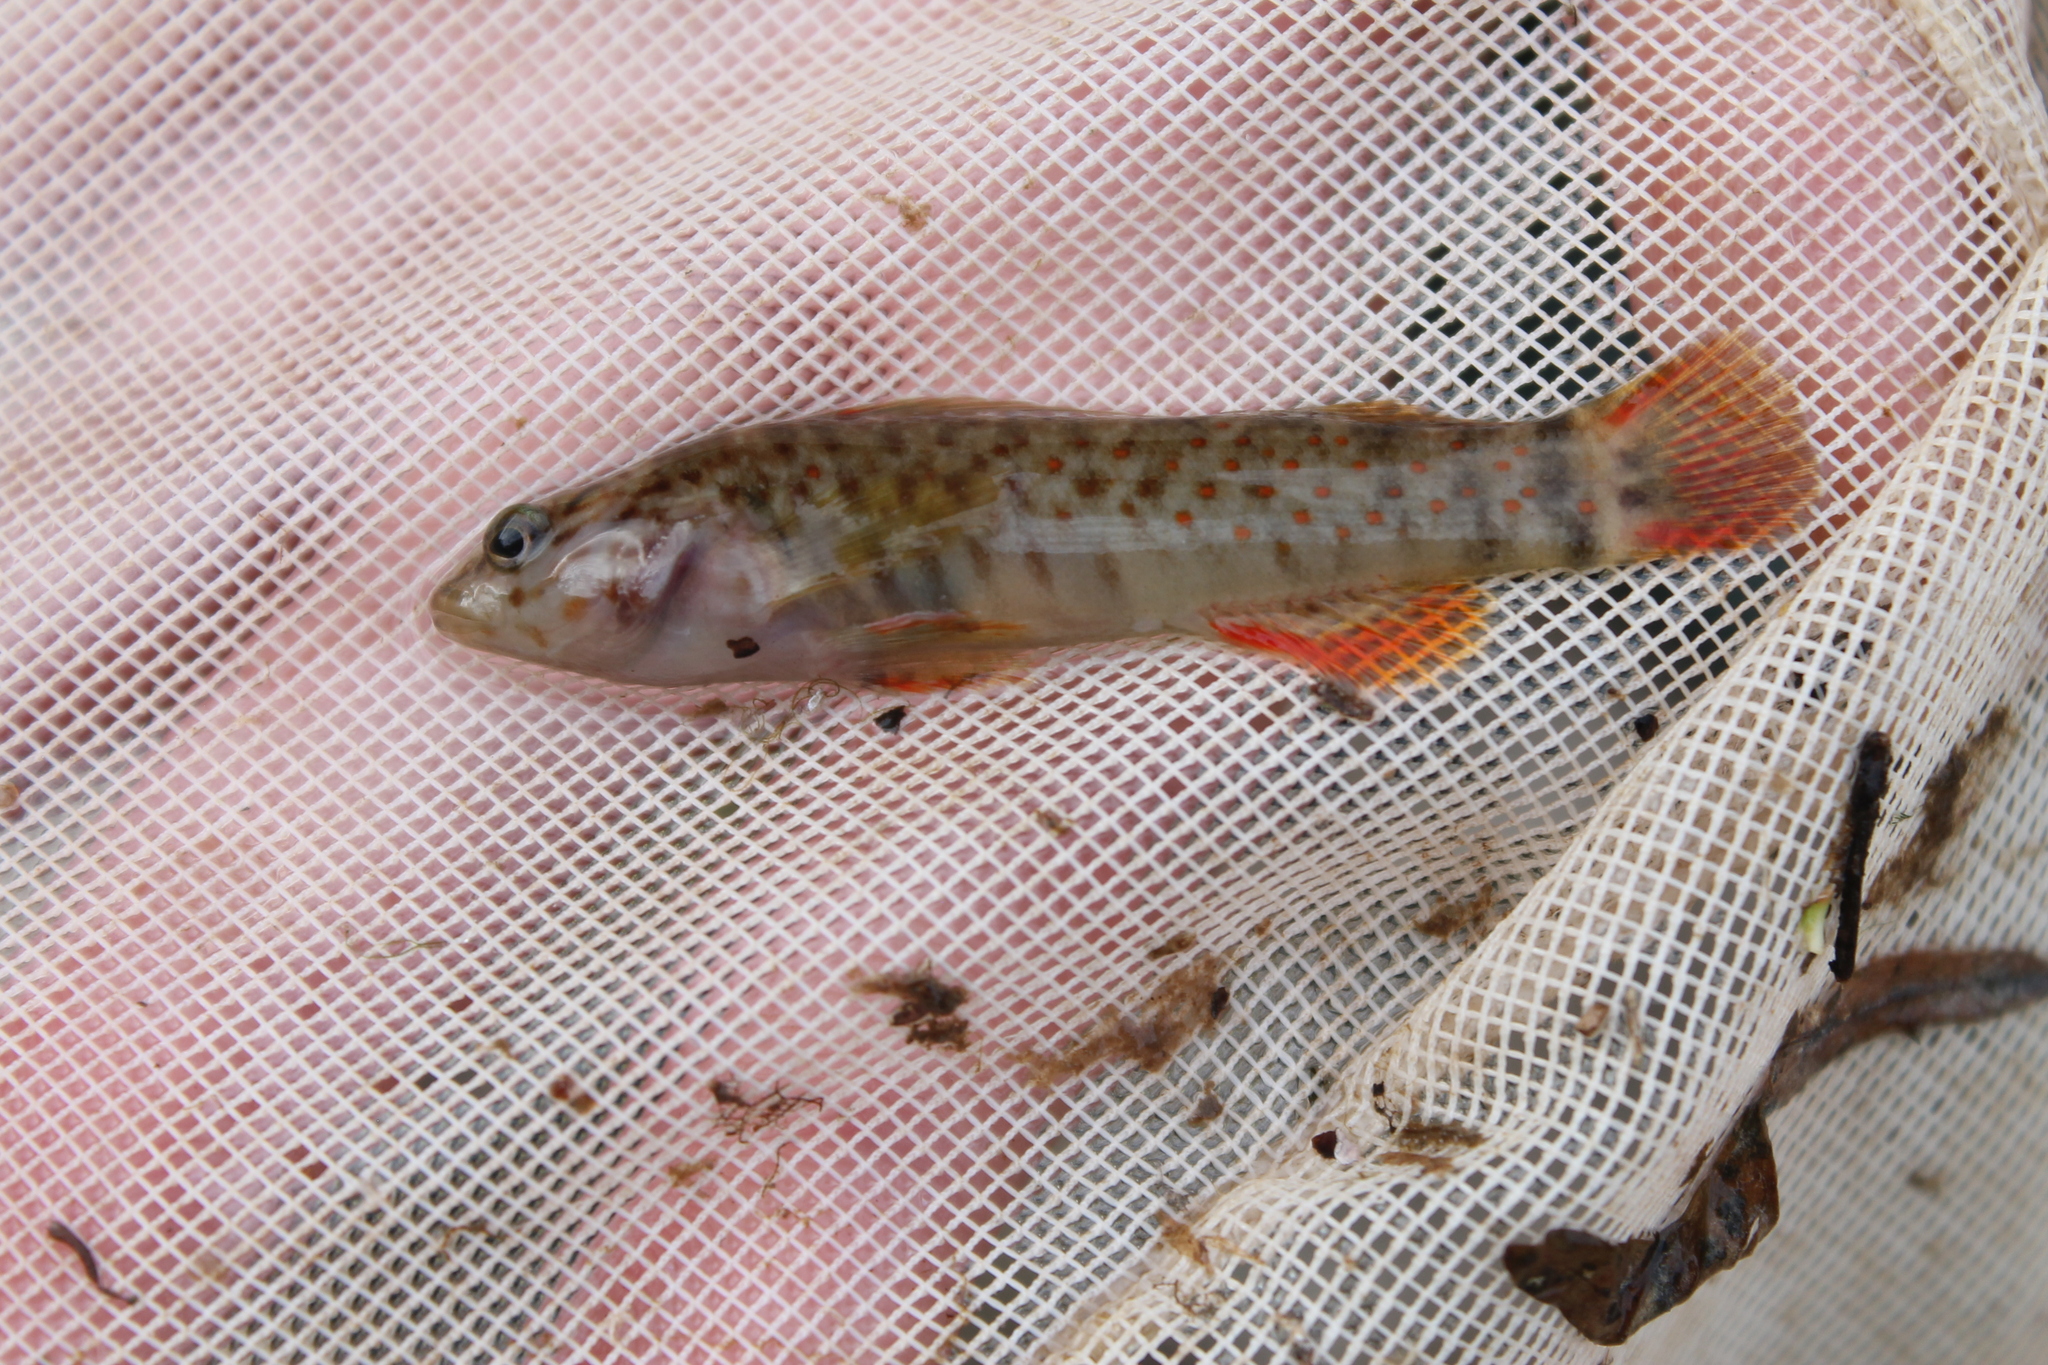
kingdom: Animalia
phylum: Chordata
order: Perciformes
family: Percidae
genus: Nothonotus
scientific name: Nothonotus aquali
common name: Coppercheek darter
